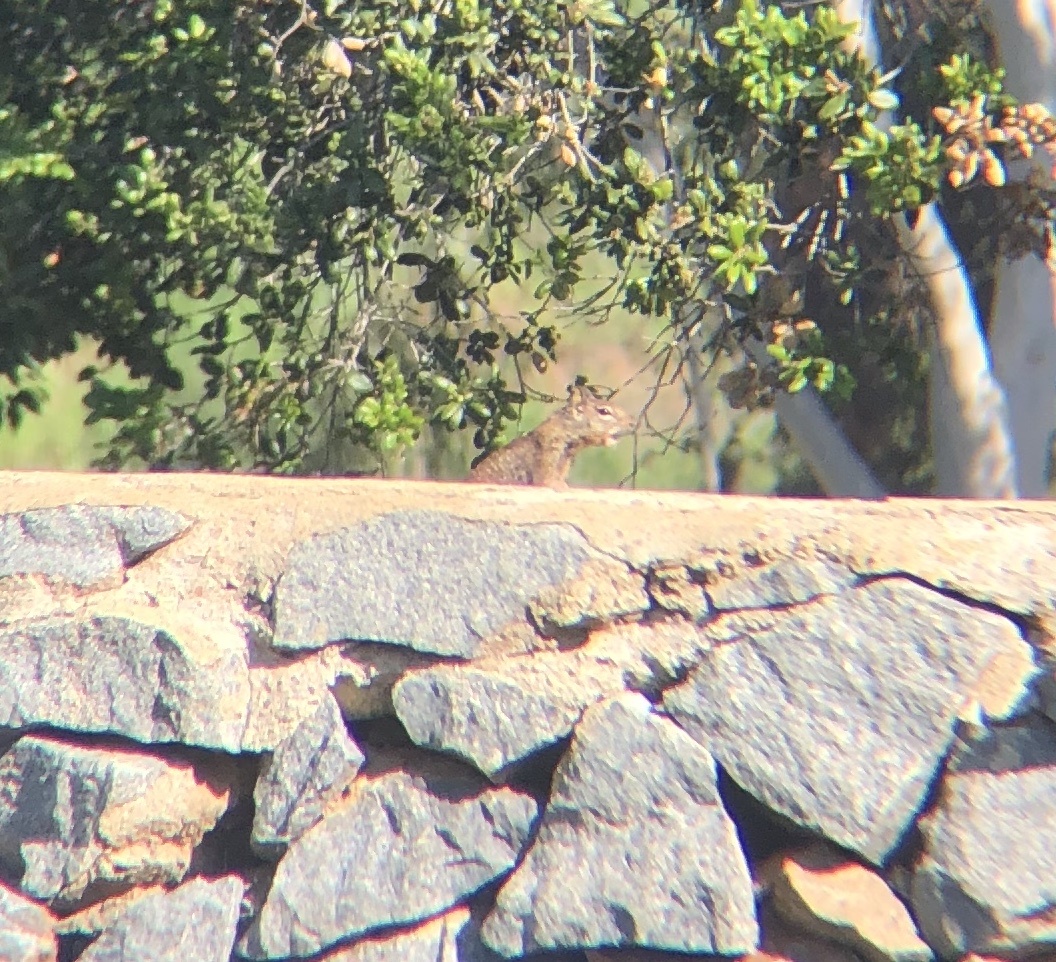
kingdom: Animalia
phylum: Chordata
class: Mammalia
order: Rodentia
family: Sciuridae
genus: Otospermophilus
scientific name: Otospermophilus beecheyi
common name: California ground squirrel
